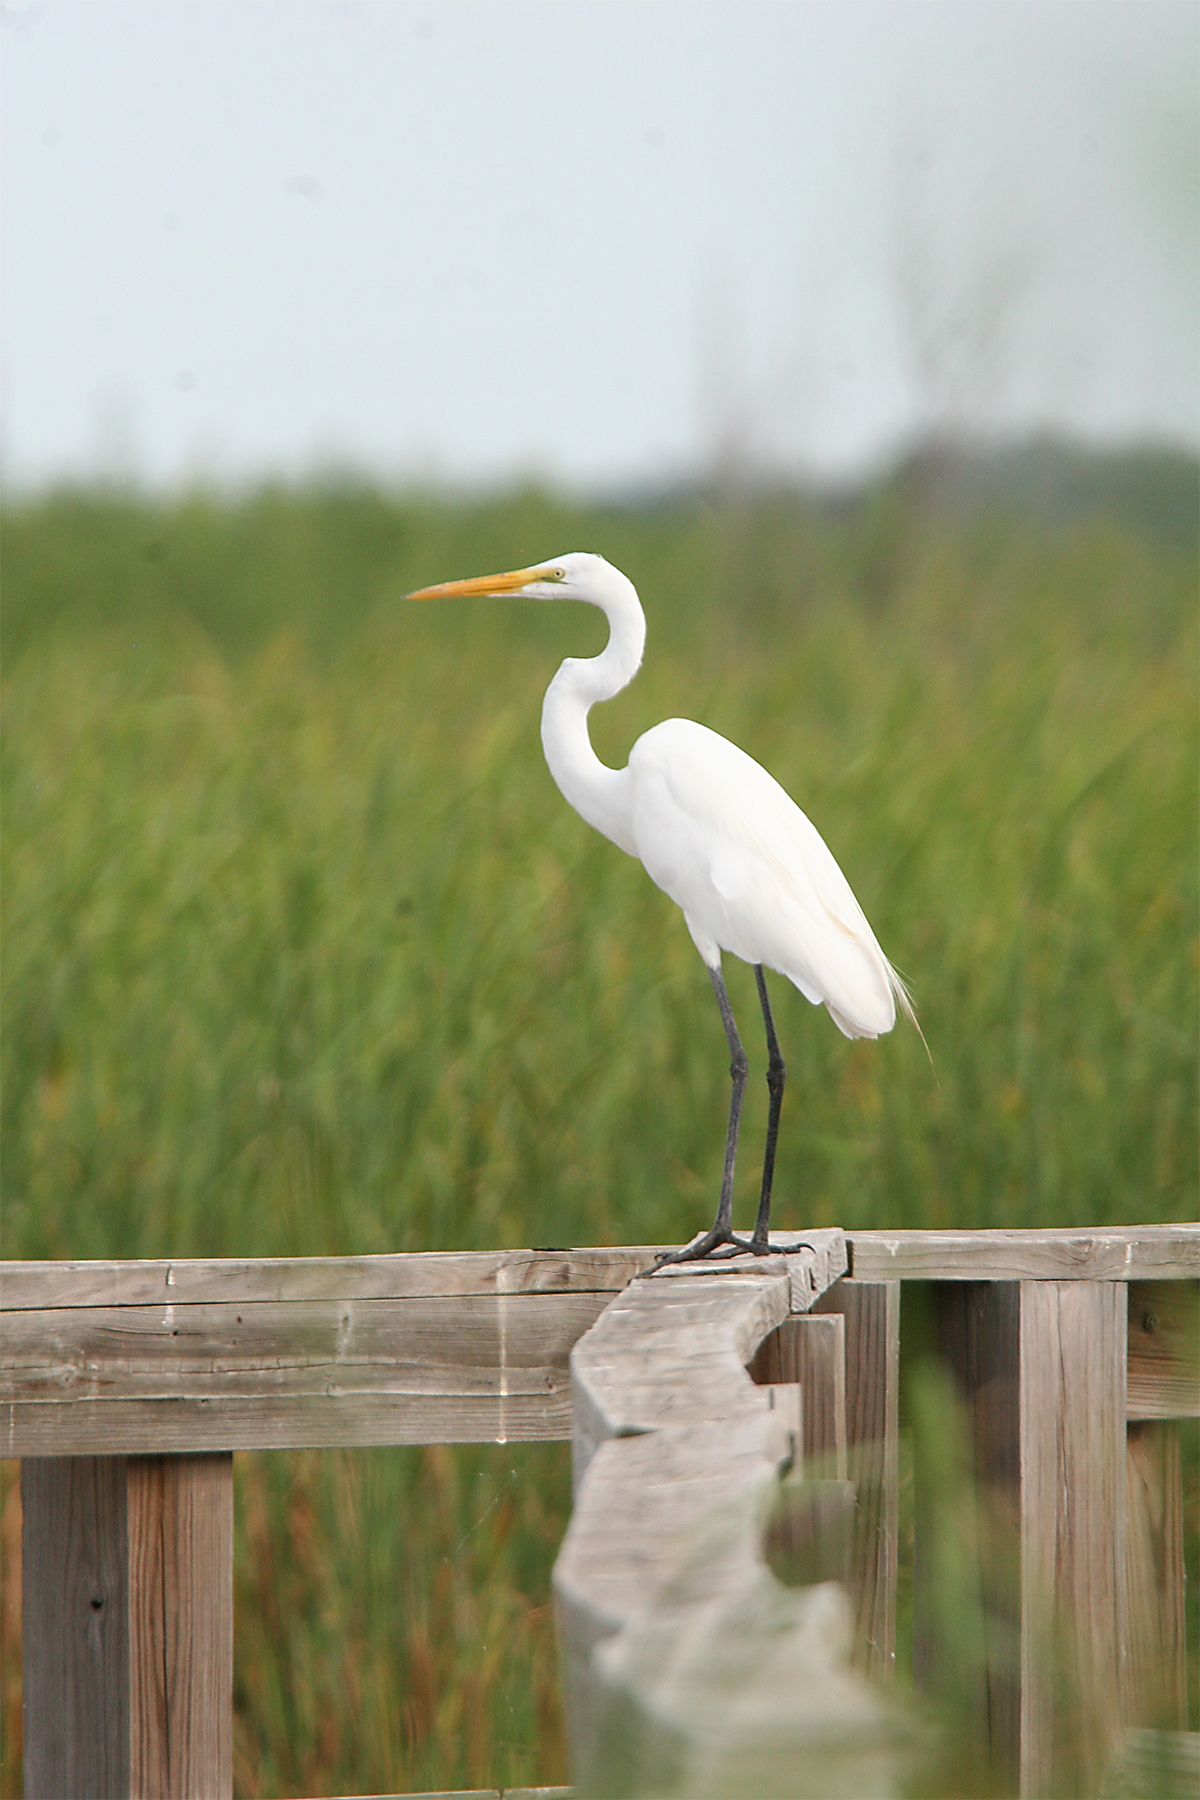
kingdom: Animalia
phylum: Chordata
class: Aves
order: Pelecaniformes
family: Ardeidae
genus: Ardea
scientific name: Ardea alba
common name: Great egret
